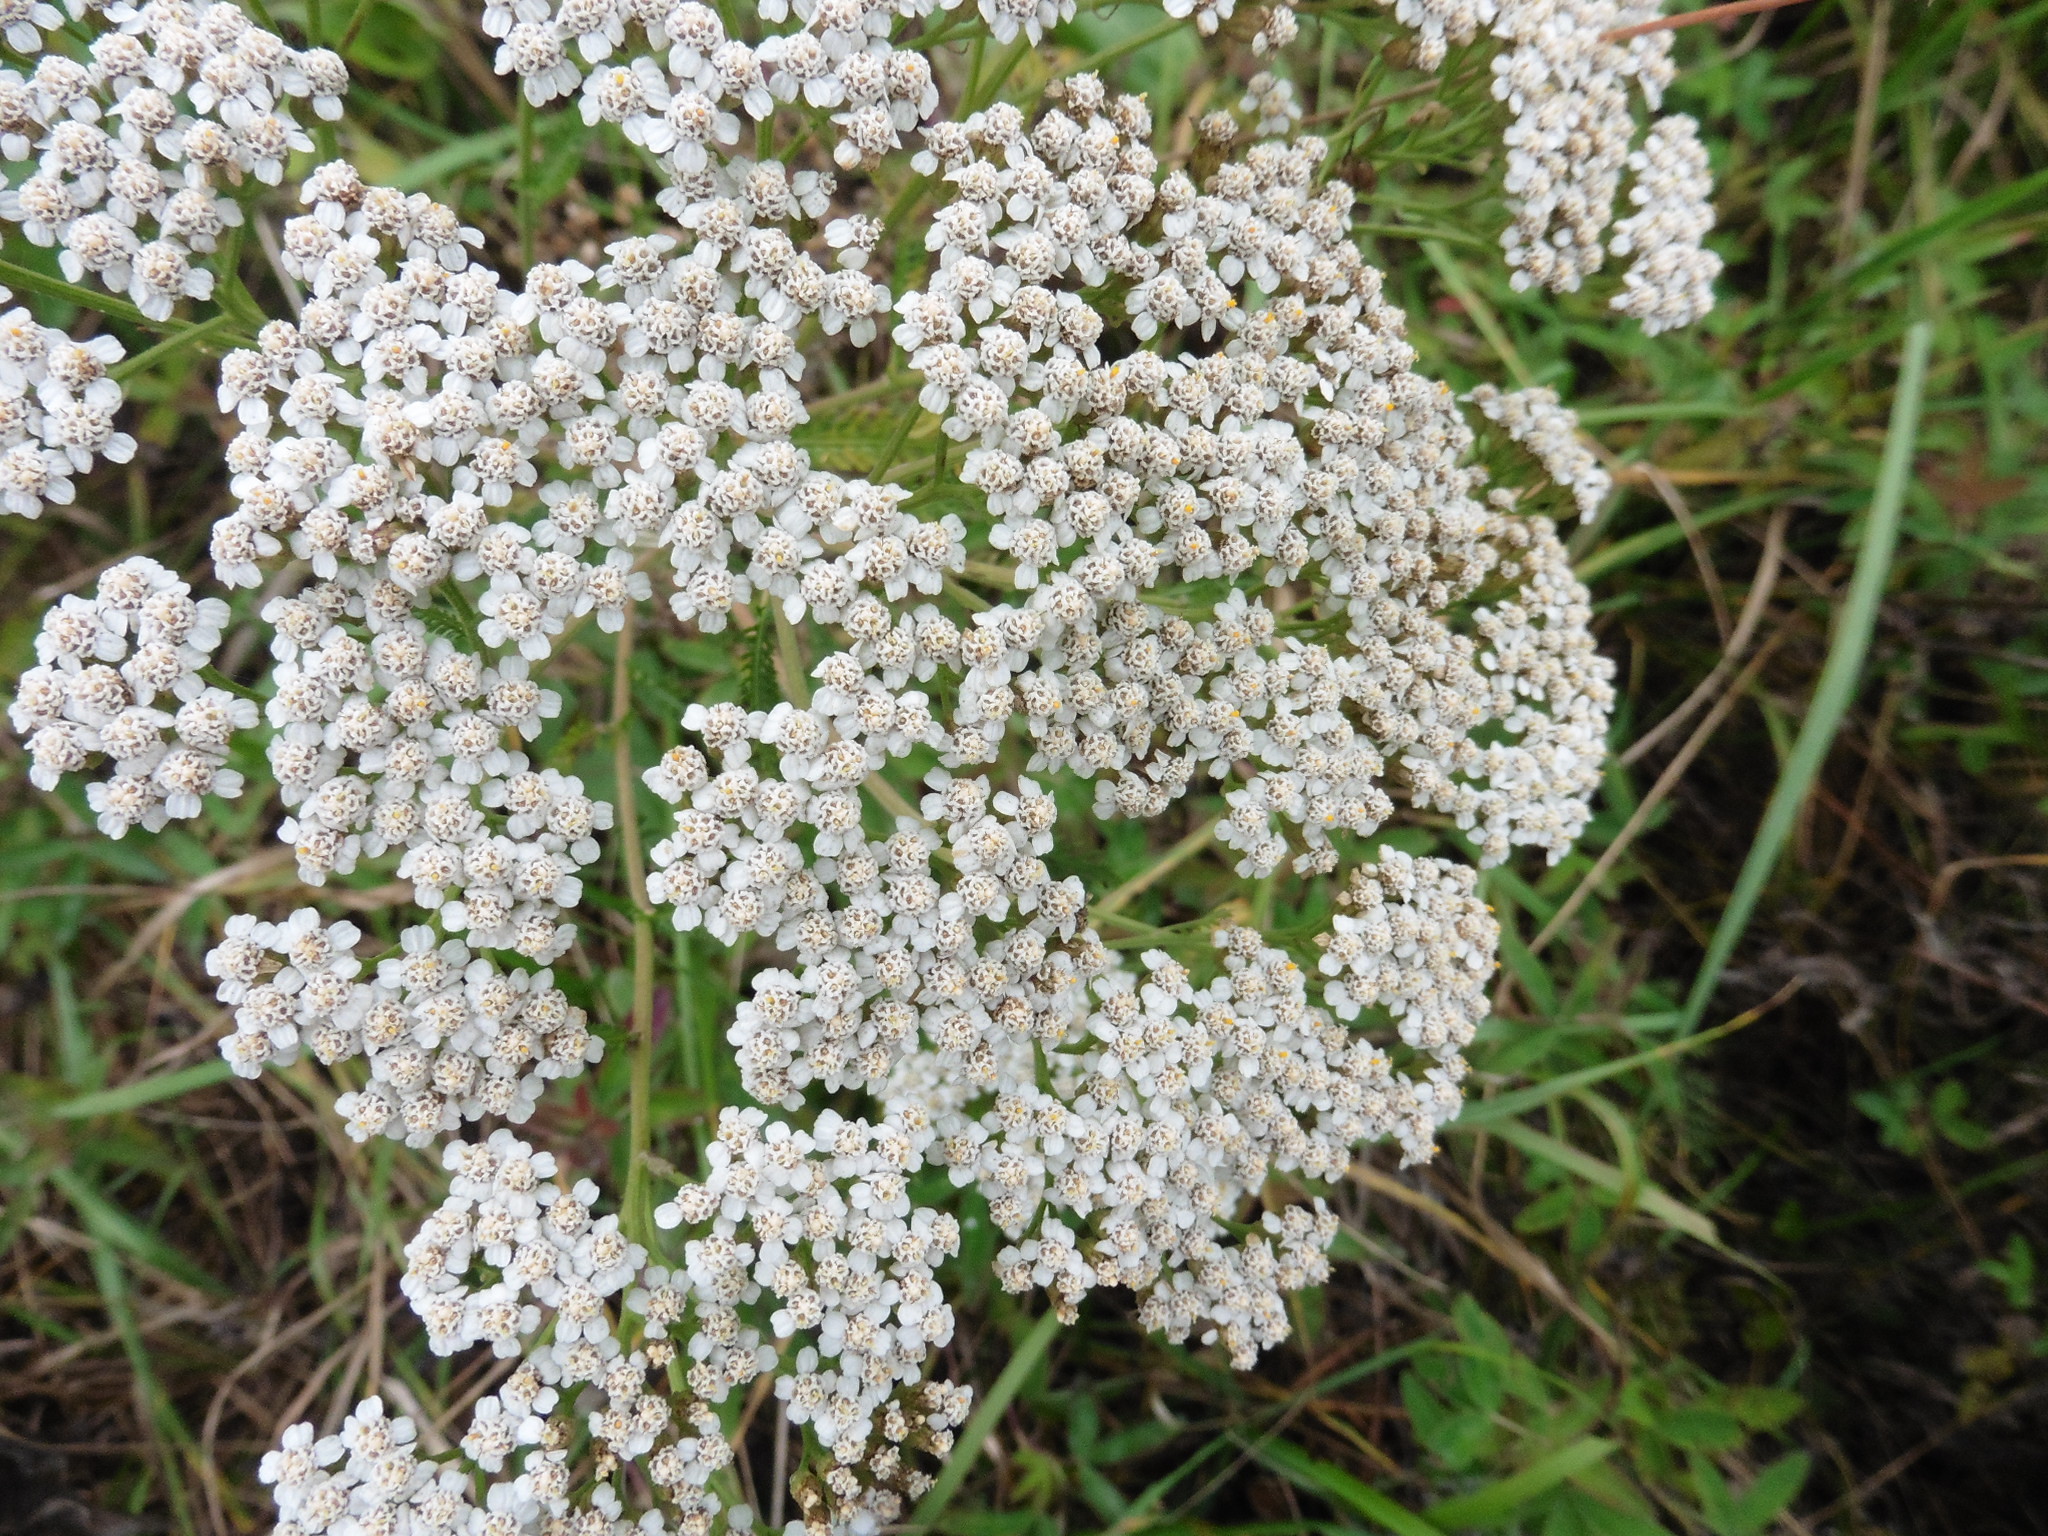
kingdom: Plantae
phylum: Tracheophyta
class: Magnoliopsida
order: Asterales
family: Asteraceae
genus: Achillea
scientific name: Achillea millefolium
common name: Yarrow
